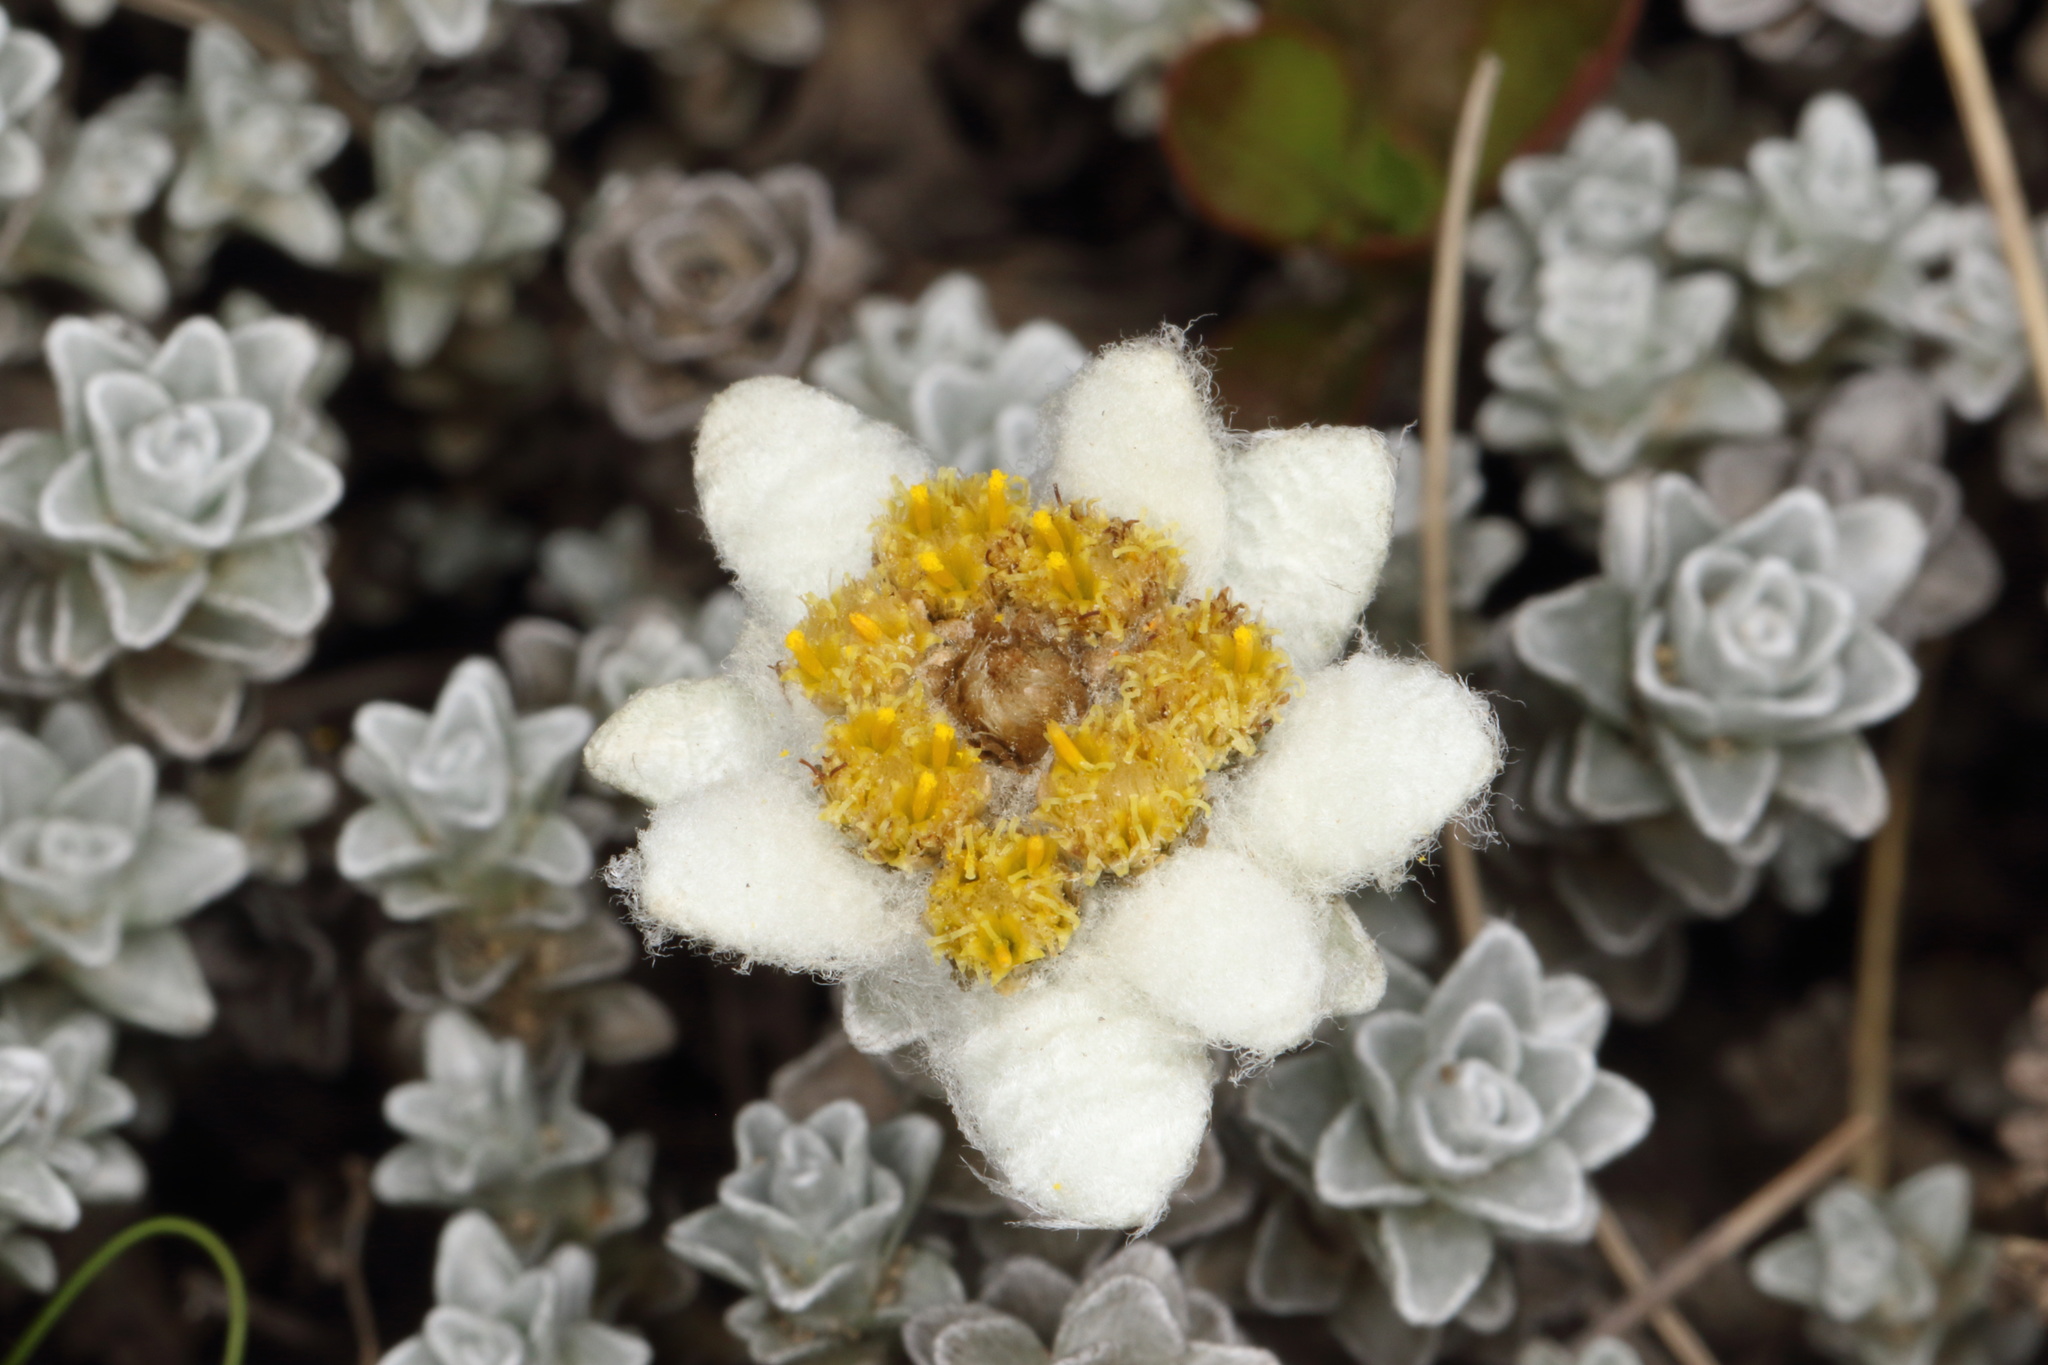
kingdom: Plantae
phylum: Tracheophyta
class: Magnoliopsida
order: Asterales
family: Asteraceae
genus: Leucogenes
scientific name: Leucogenes grandiceps
